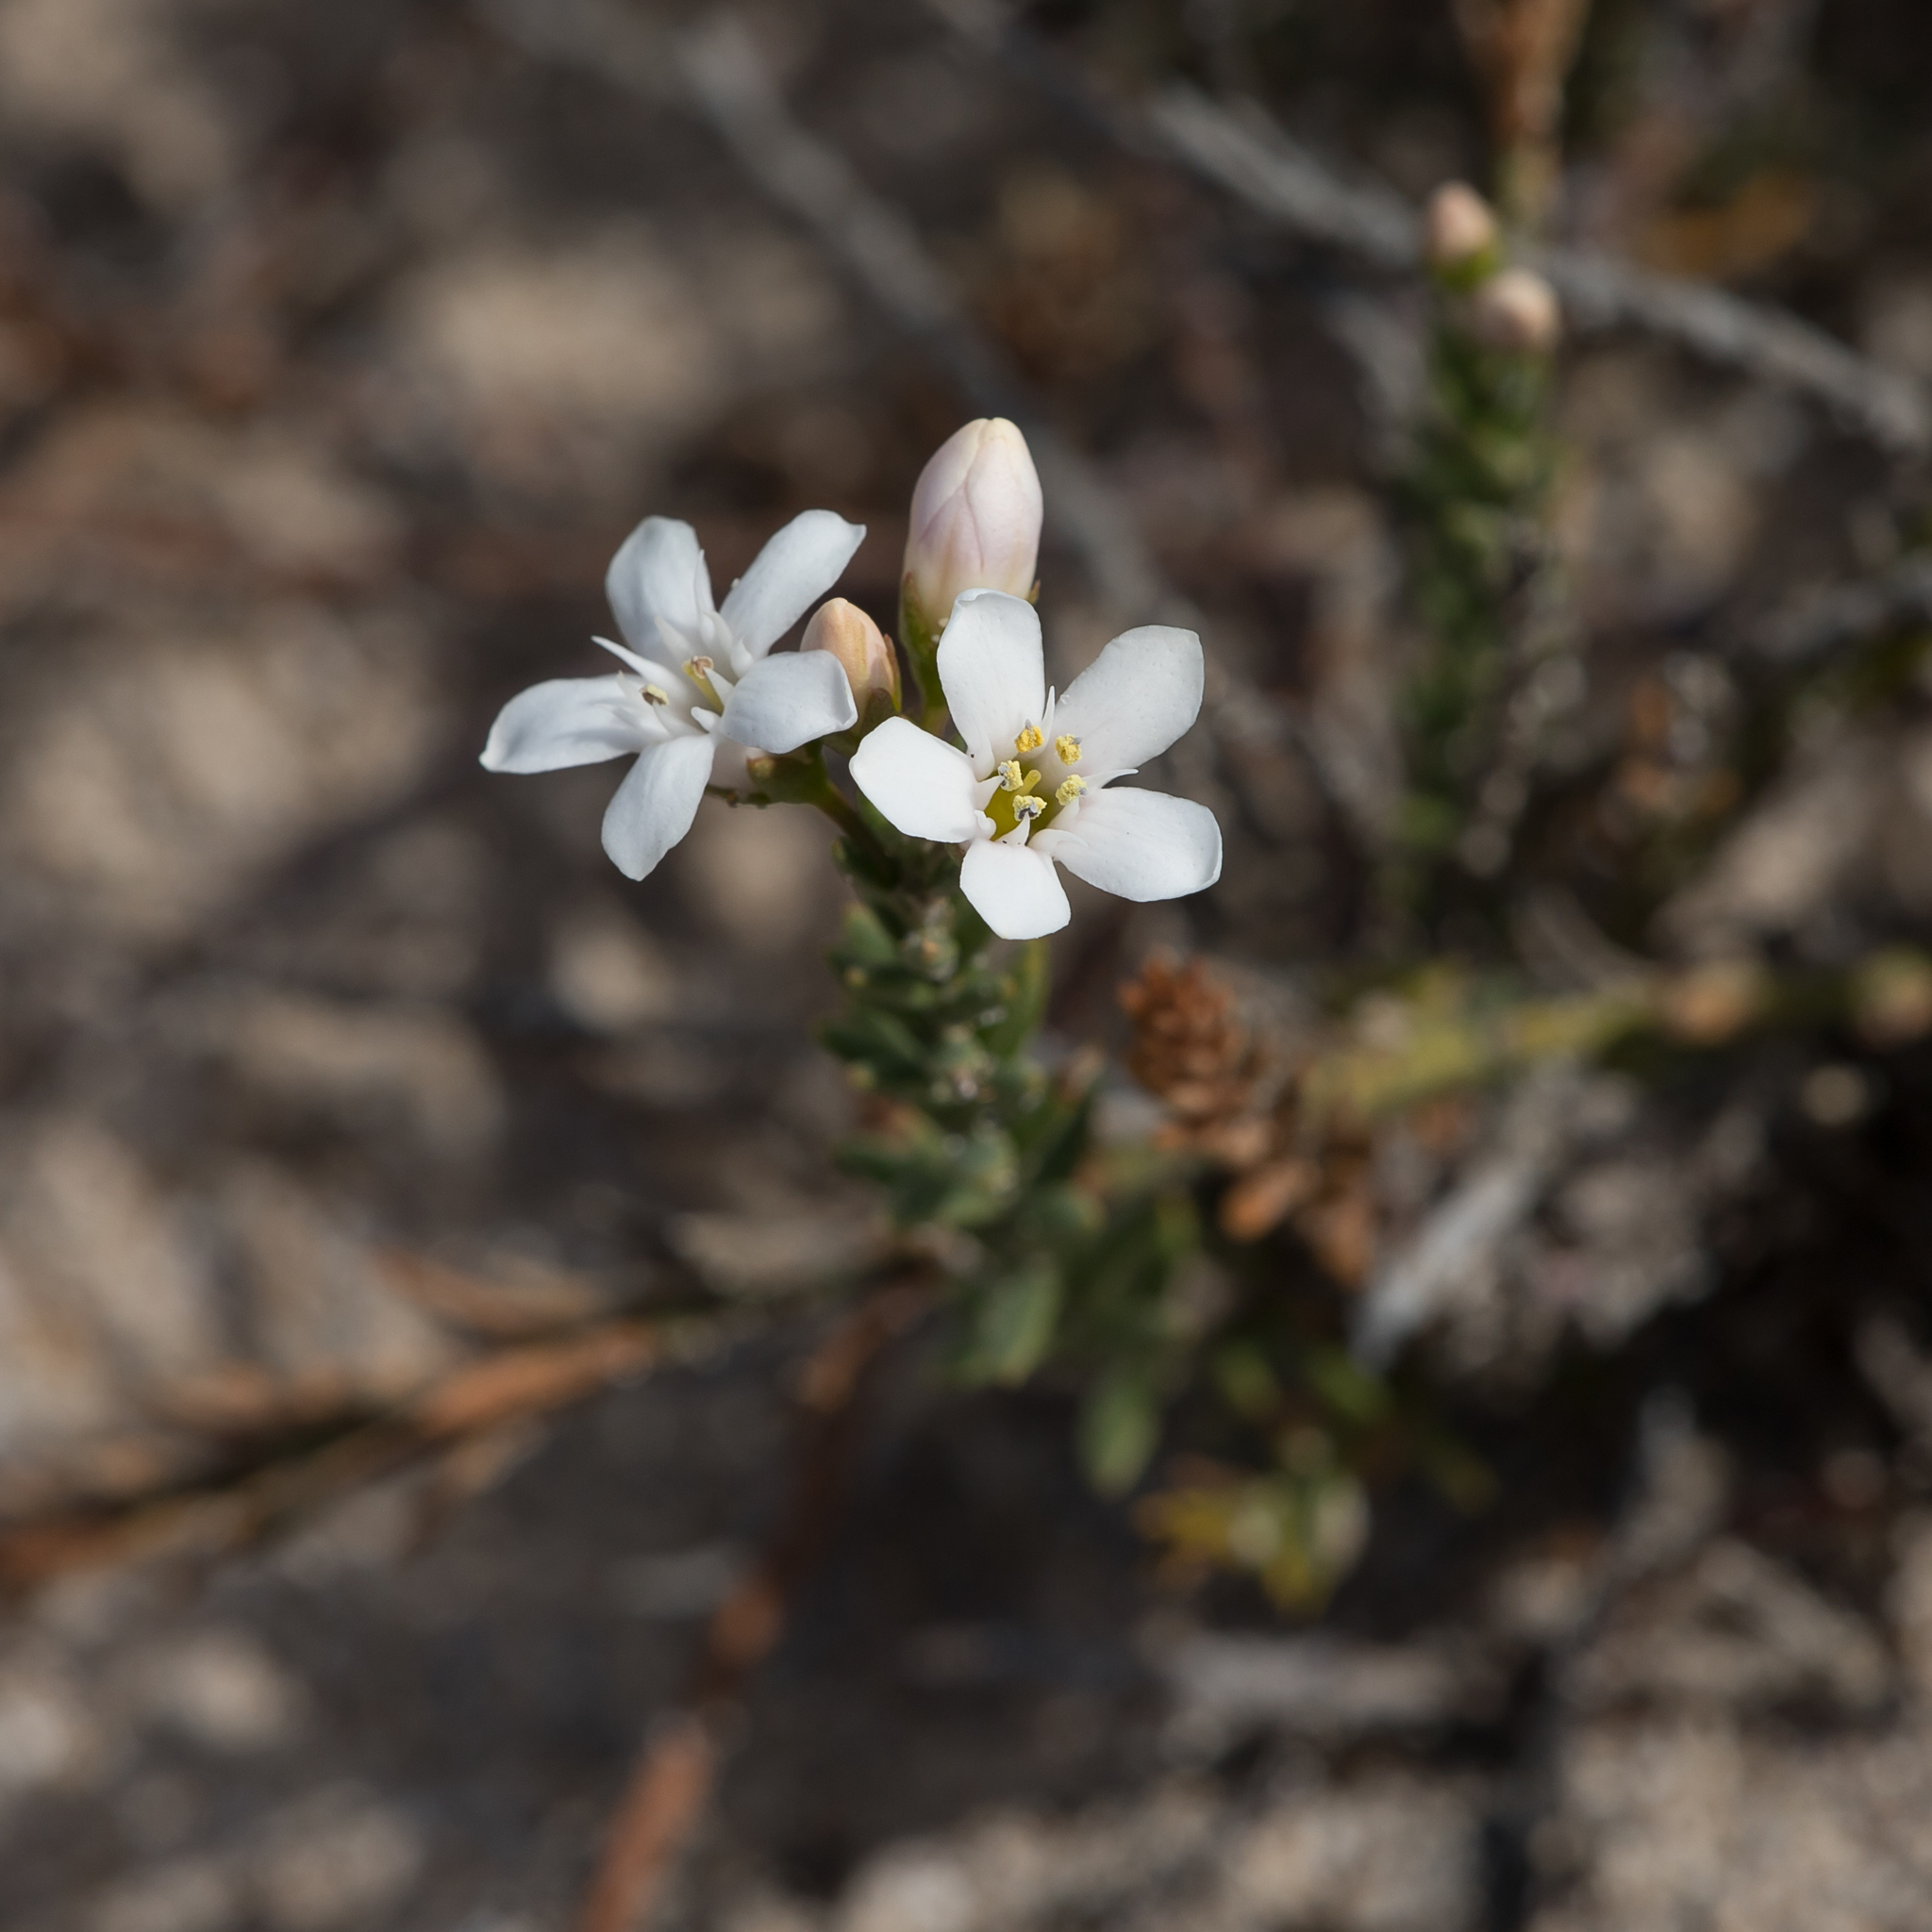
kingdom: Plantae
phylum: Tracheophyta
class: Magnoliopsida
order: Ericales
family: Primulaceae
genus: Samolus
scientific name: Samolus repens
